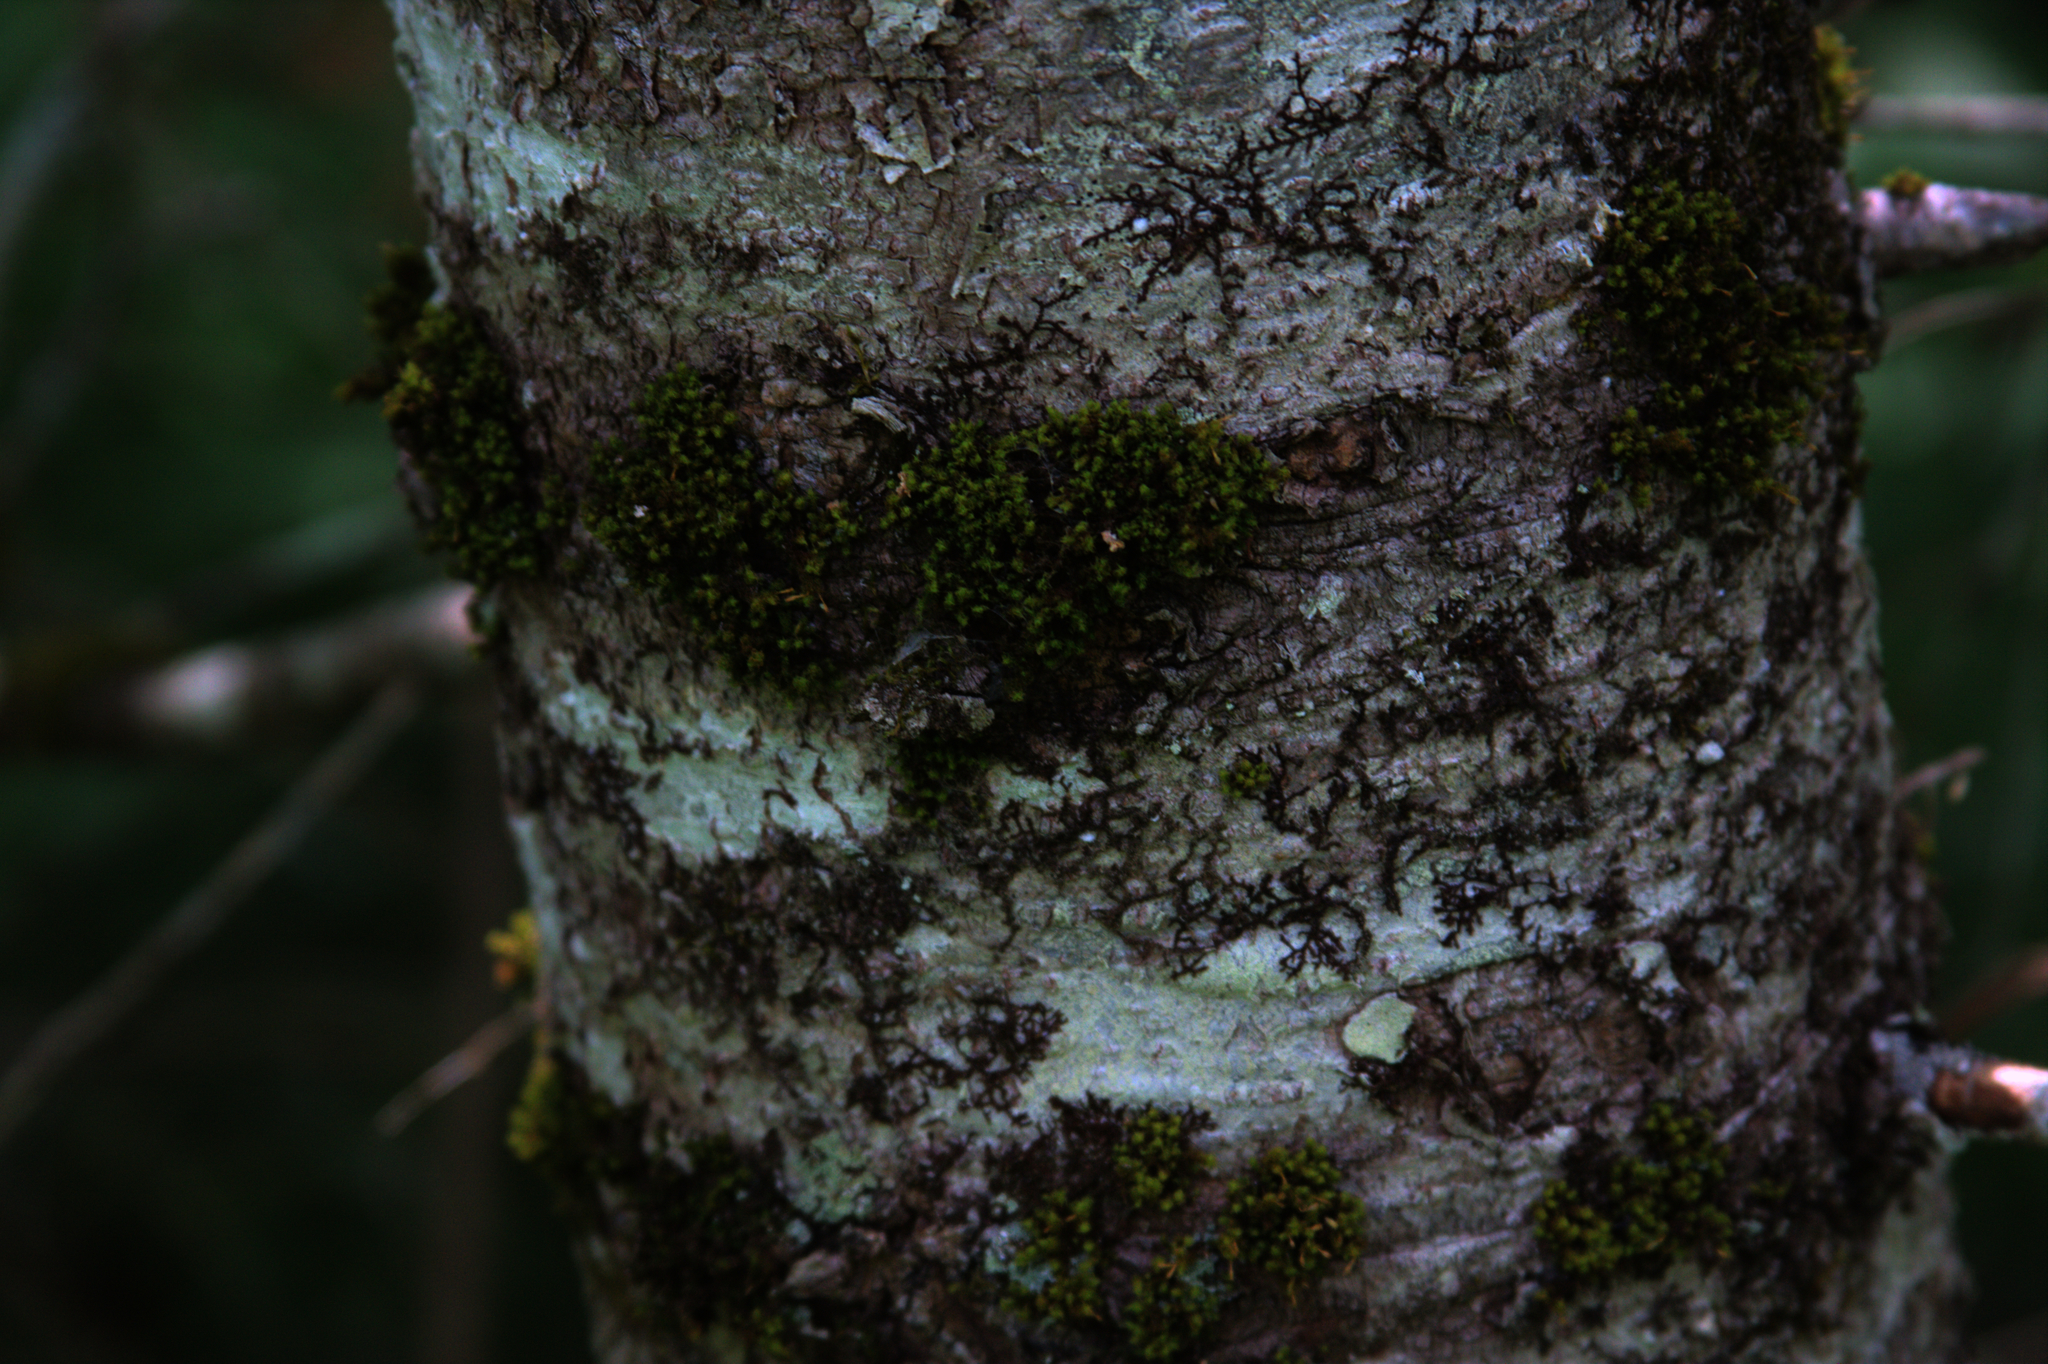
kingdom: Plantae
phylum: Bryophyta
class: Bryopsida
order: Orthotrichales
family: Orthotrichaceae
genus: Ulota
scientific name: Ulota crispa
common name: Crisped pincushion moss
